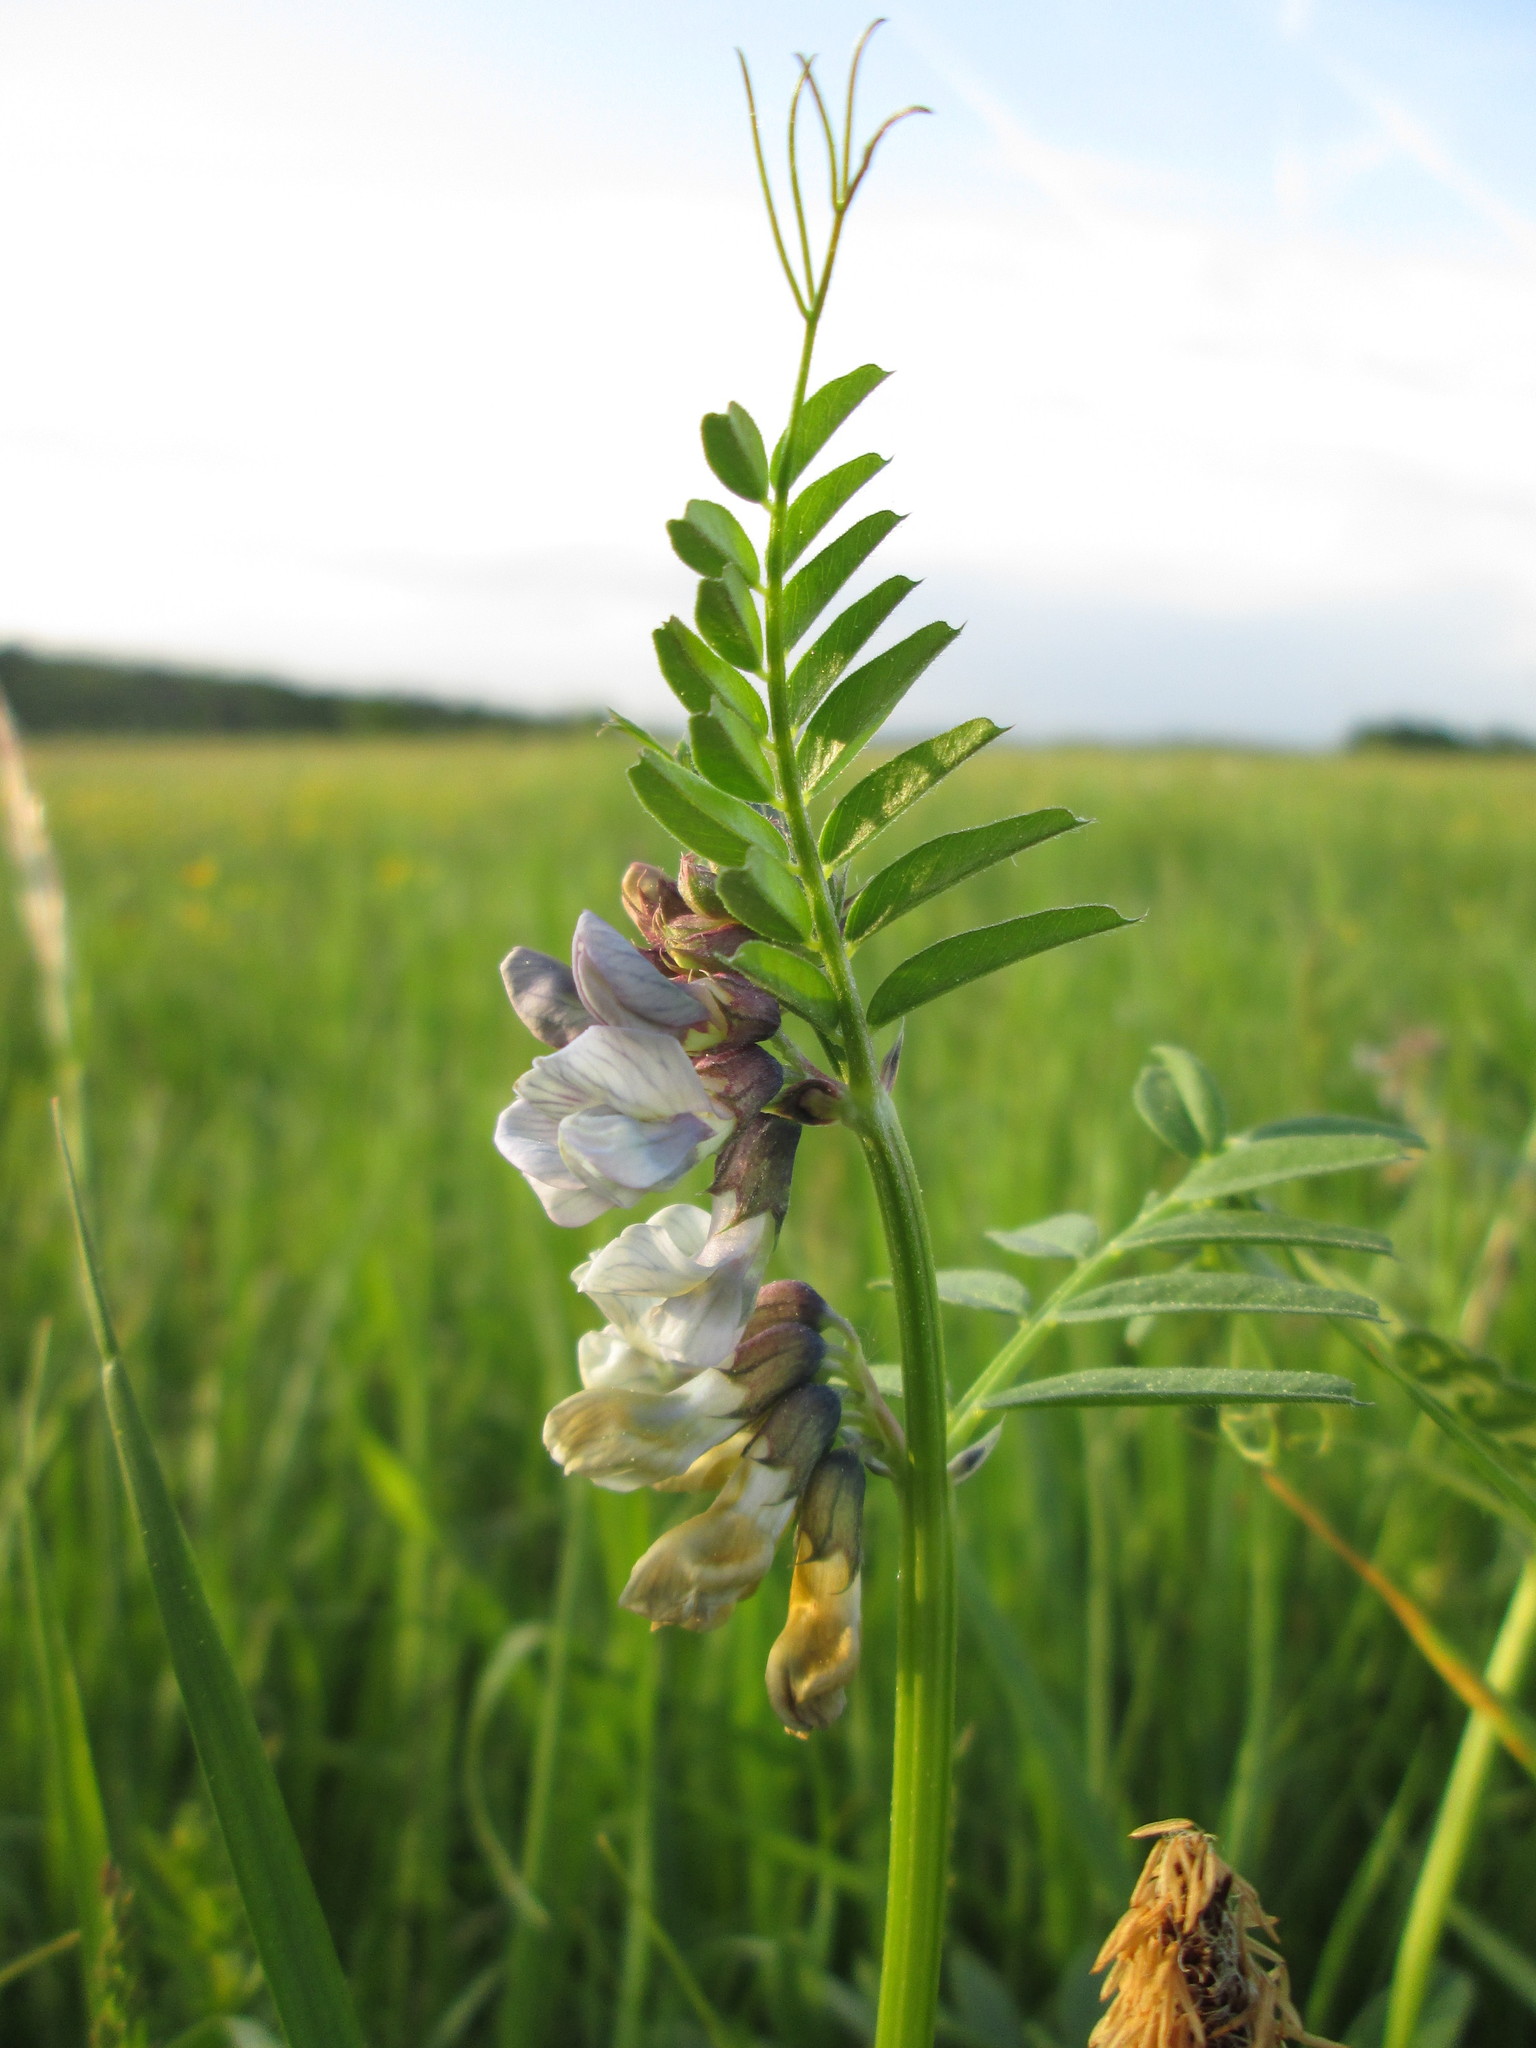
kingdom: Plantae
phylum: Tracheophyta
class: Magnoliopsida
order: Fabales
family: Fabaceae
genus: Vicia
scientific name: Vicia sepium
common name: Bush vetch
